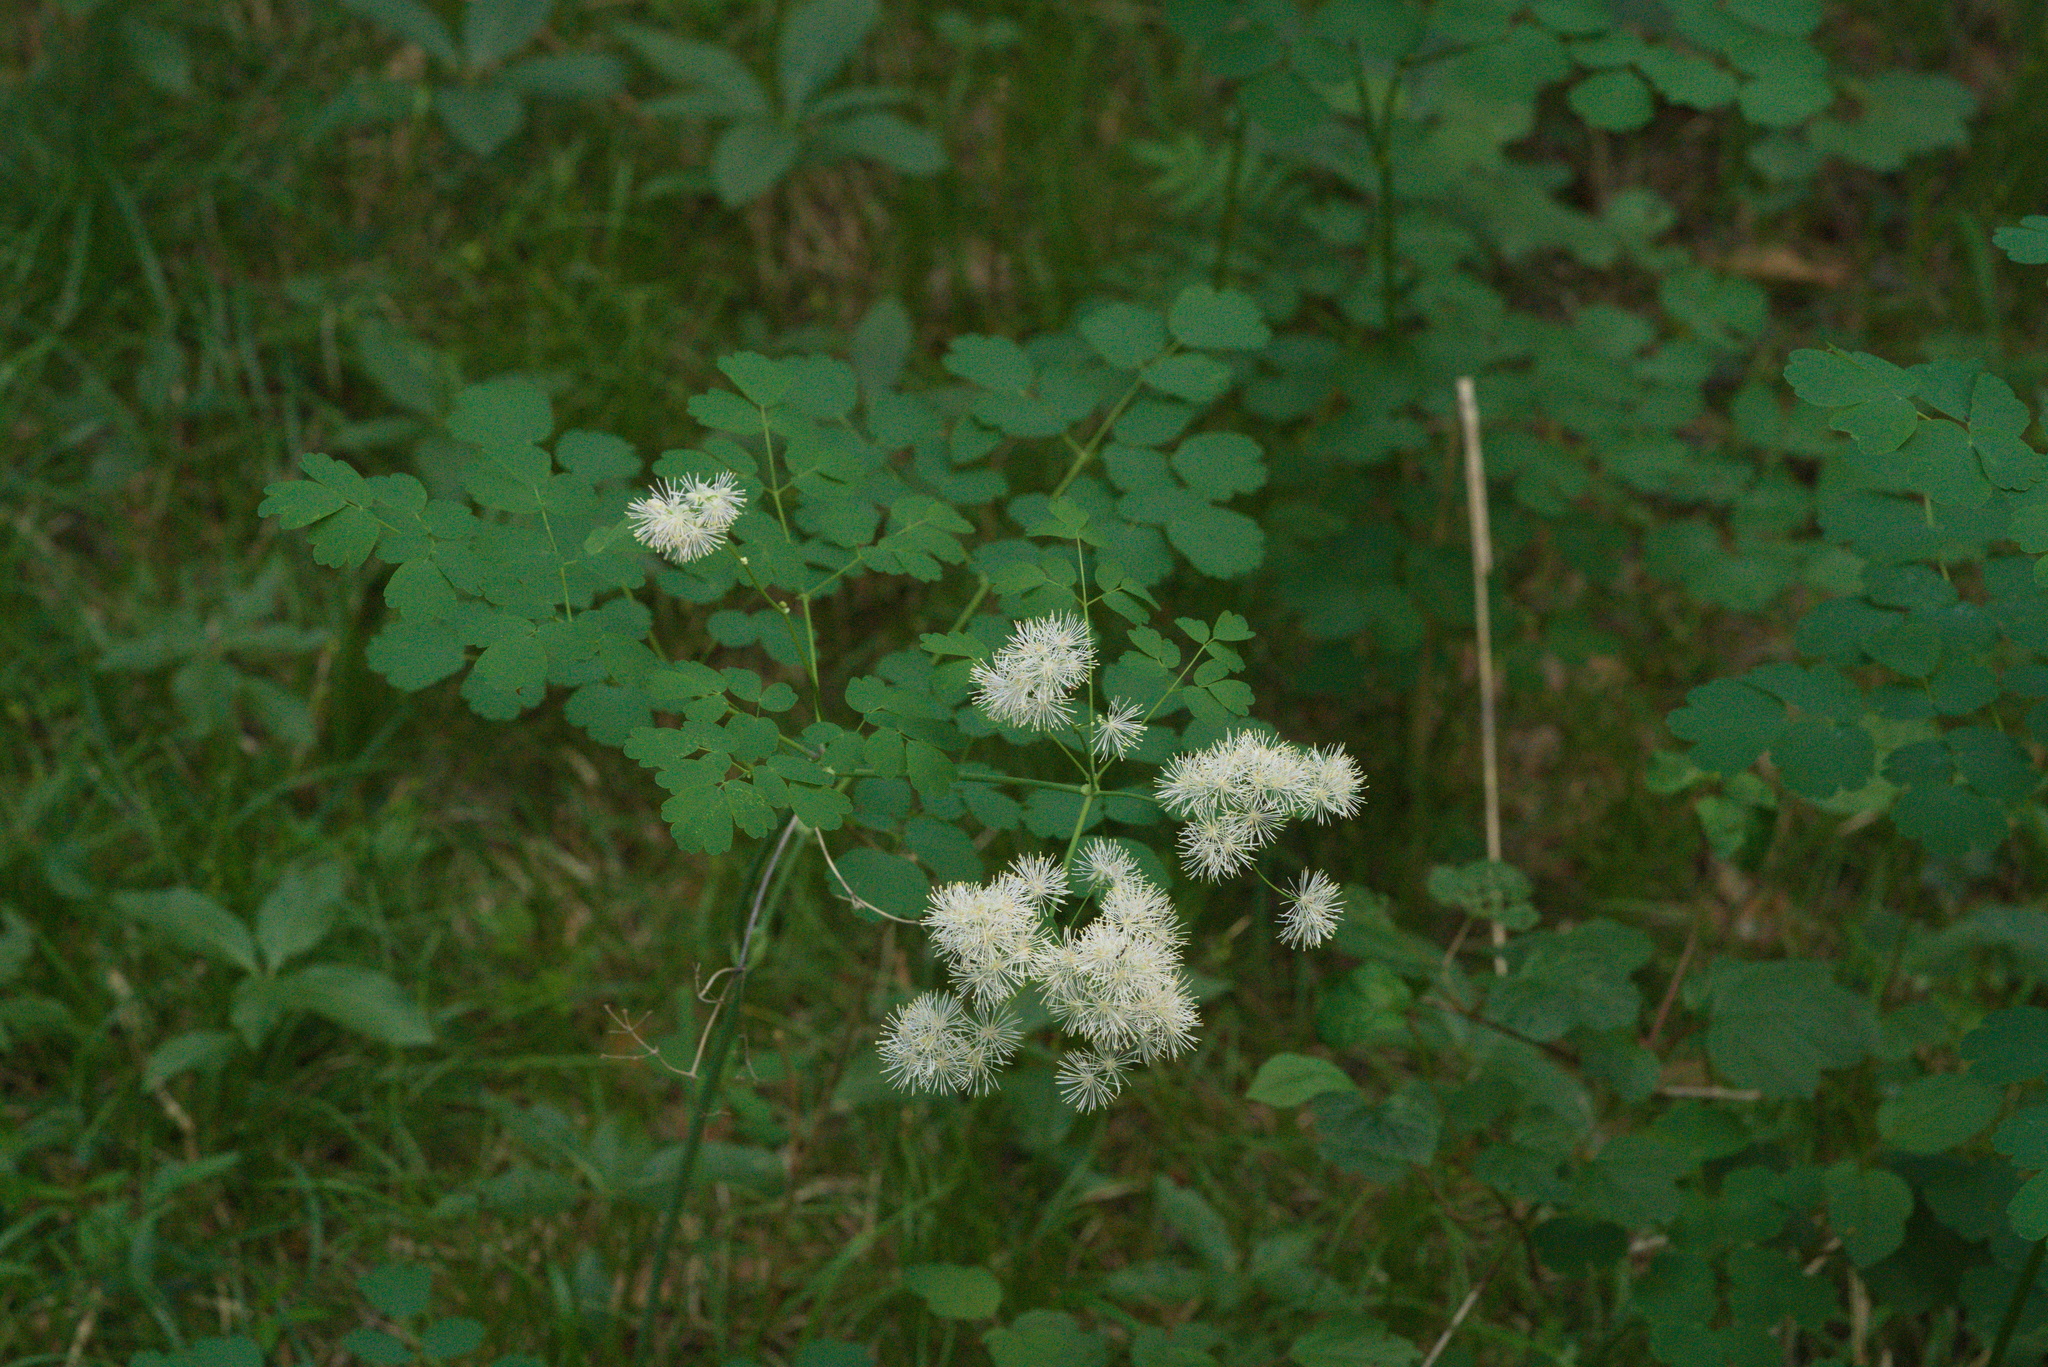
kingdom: Plantae
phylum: Tracheophyta
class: Magnoliopsida
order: Ranunculales
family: Ranunculaceae
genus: Thalictrum
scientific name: Thalictrum aquilegiifolium
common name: French meadow-rue
